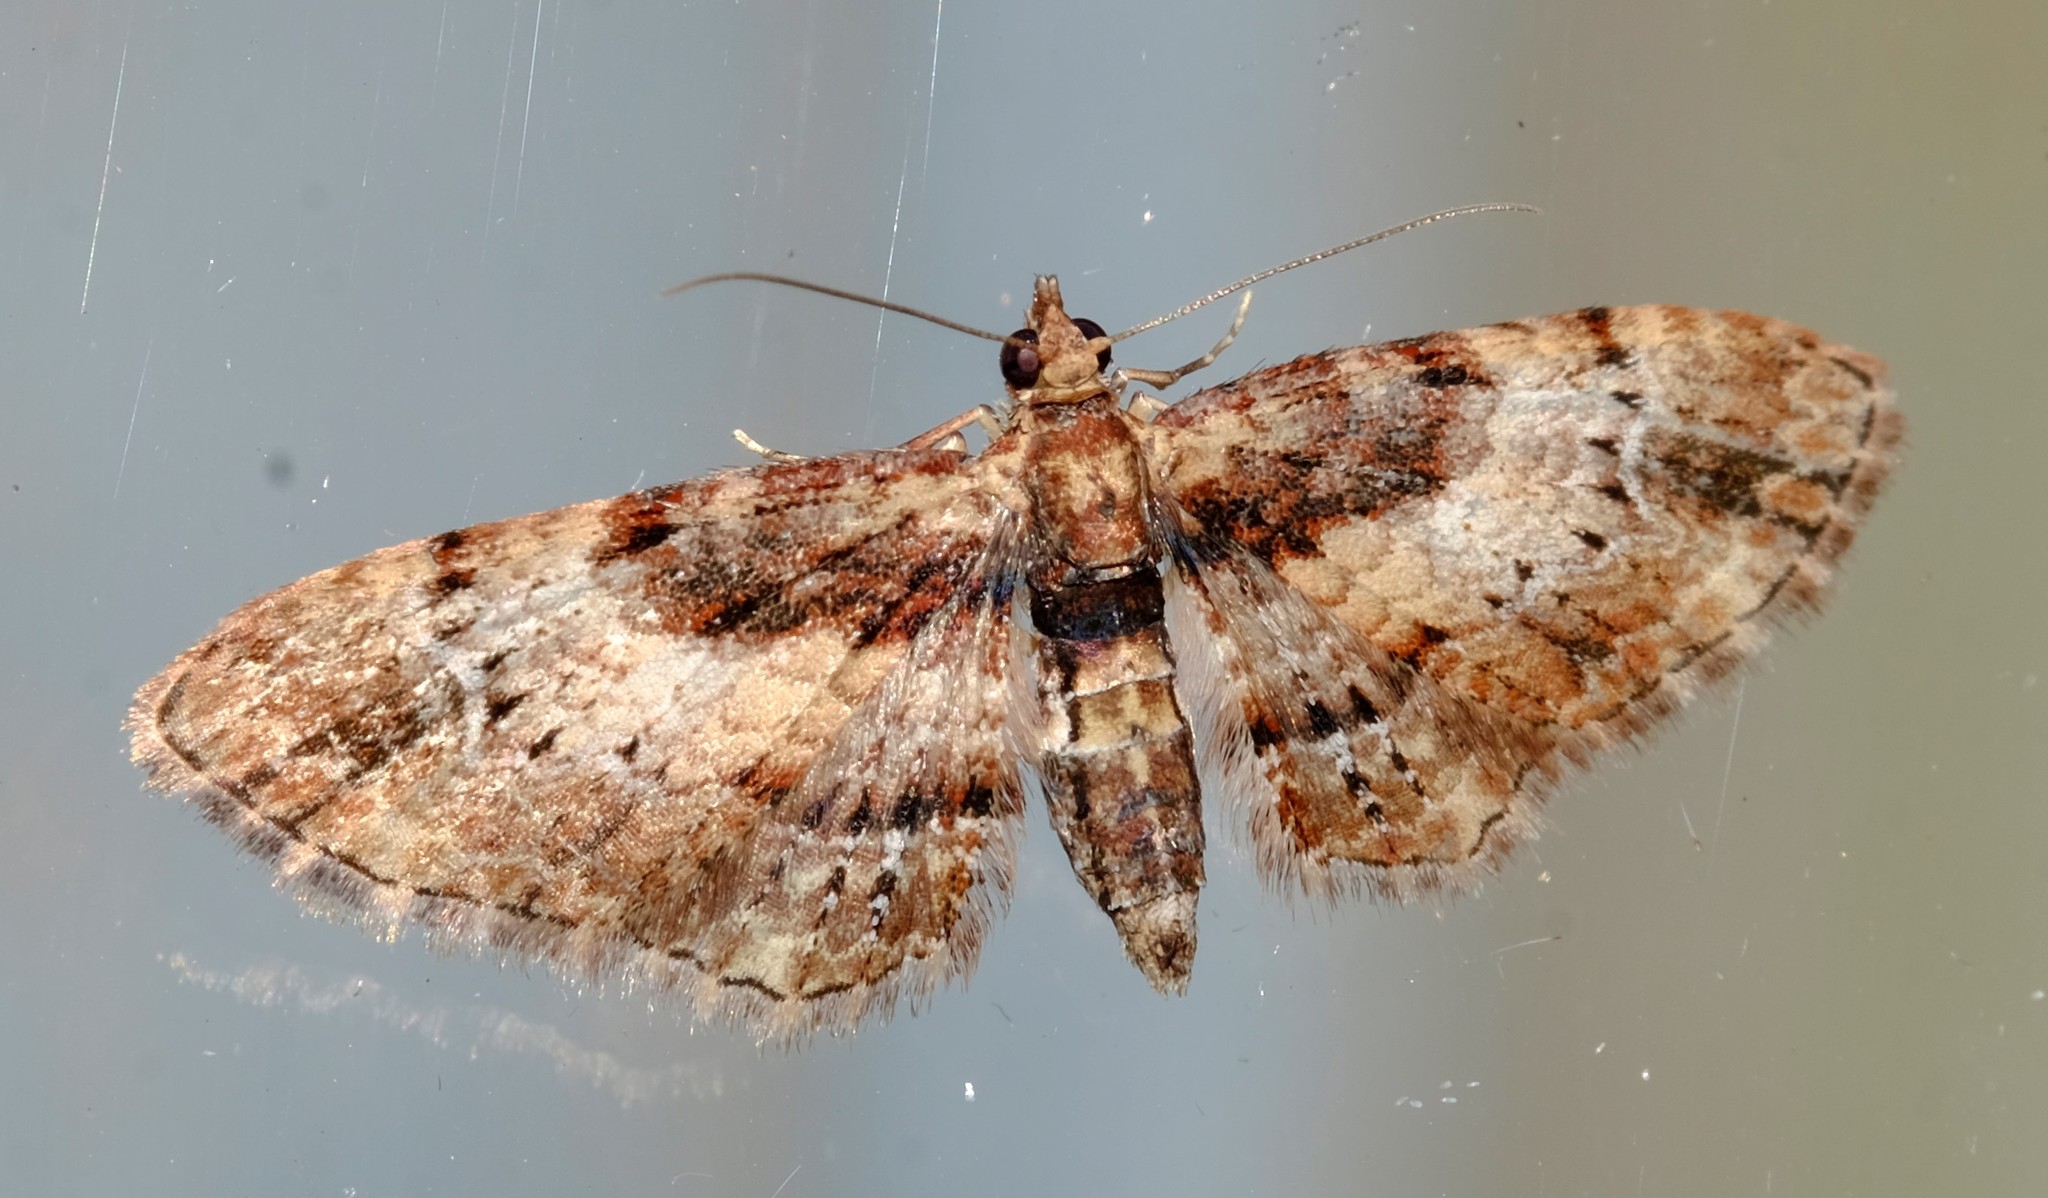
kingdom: Animalia
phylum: Arthropoda
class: Insecta
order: Lepidoptera
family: Geometridae
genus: Chloroclystis
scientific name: Chloroclystis approximata
